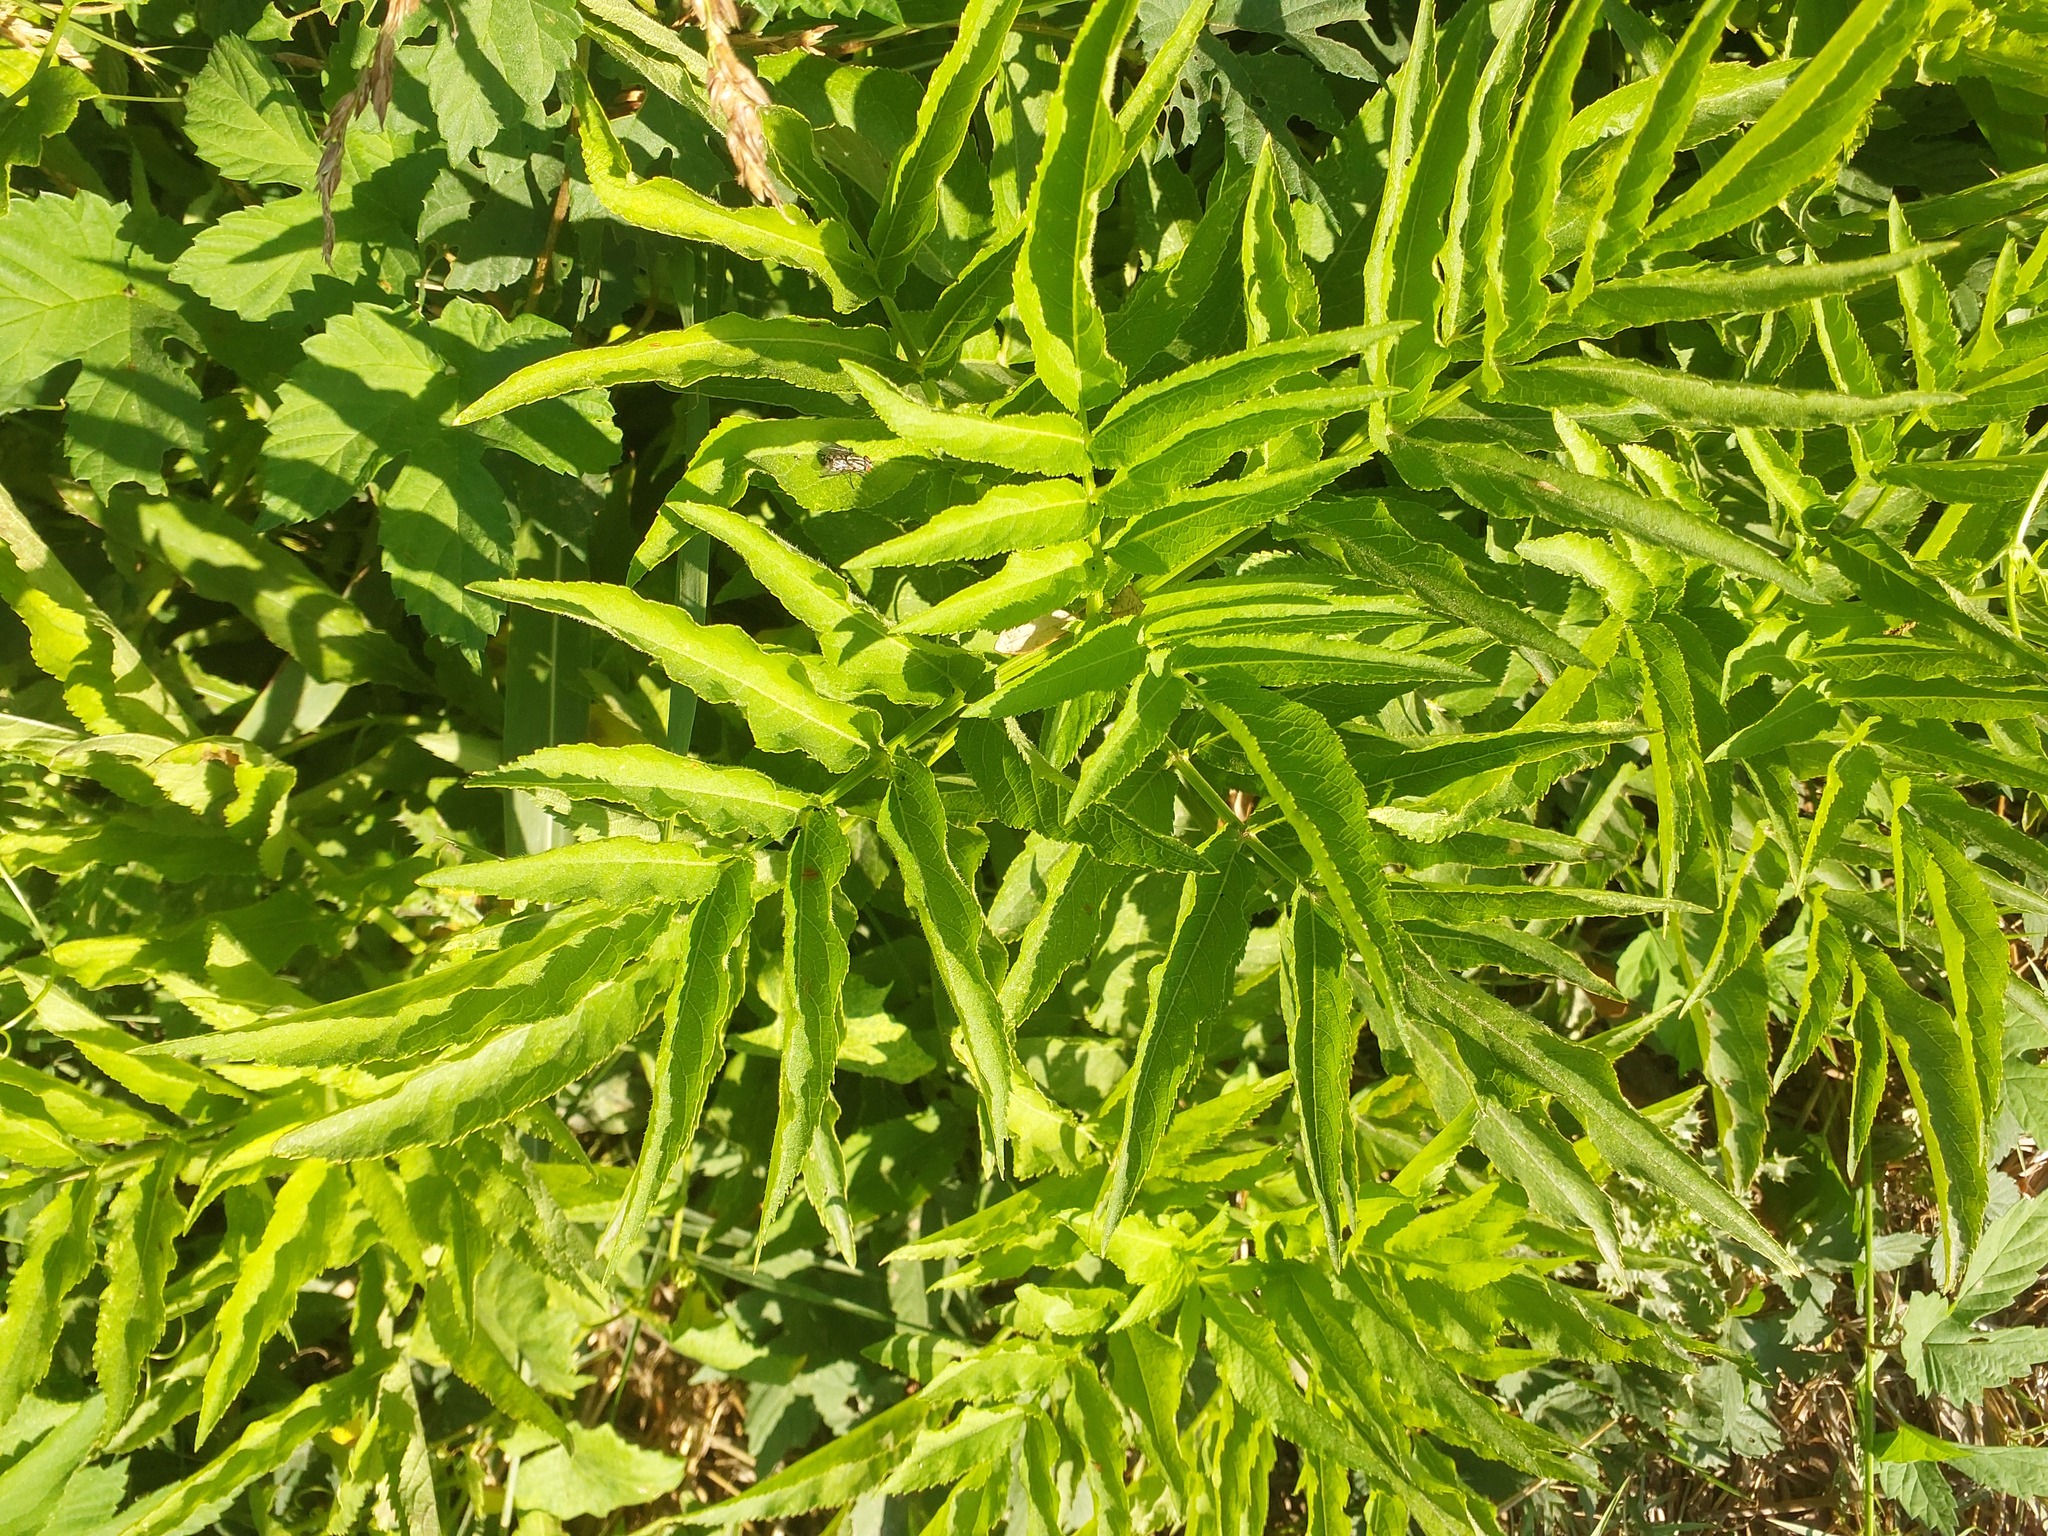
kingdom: Plantae
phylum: Tracheophyta
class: Magnoliopsida
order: Dipsacales
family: Viburnaceae
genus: Sambucus
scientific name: Sambucus ebulus
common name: Dwarf elder
